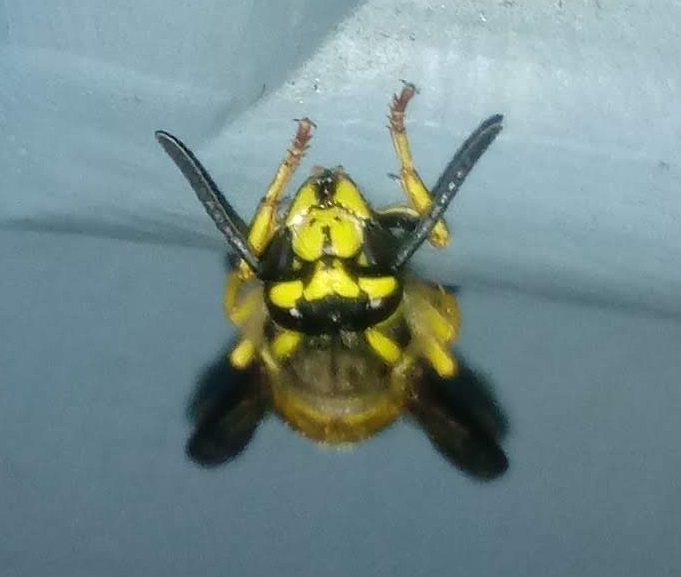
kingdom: Animalia
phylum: Arthropoda
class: Insecta
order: Hymenoptera
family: Vespidae
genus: Vespula
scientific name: Vespula maculifrons
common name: Eastern yellowjacket
